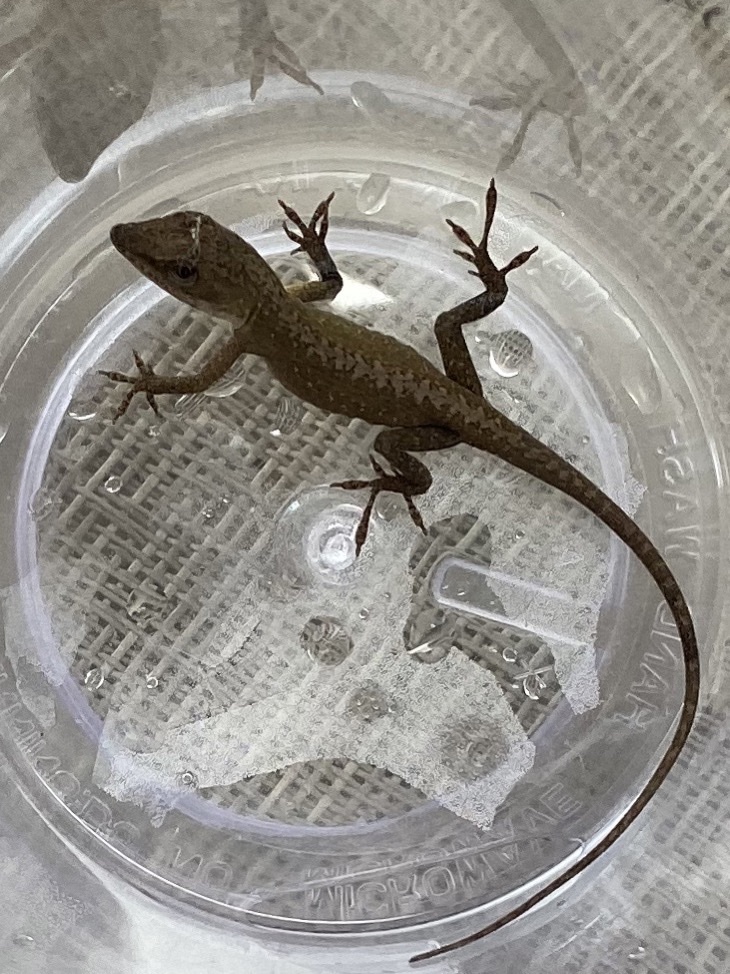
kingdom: Animalia
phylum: Chordata
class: Squamata
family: Dactyloidae
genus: Anolis
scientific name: Anolis carolinensis
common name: Green anole
